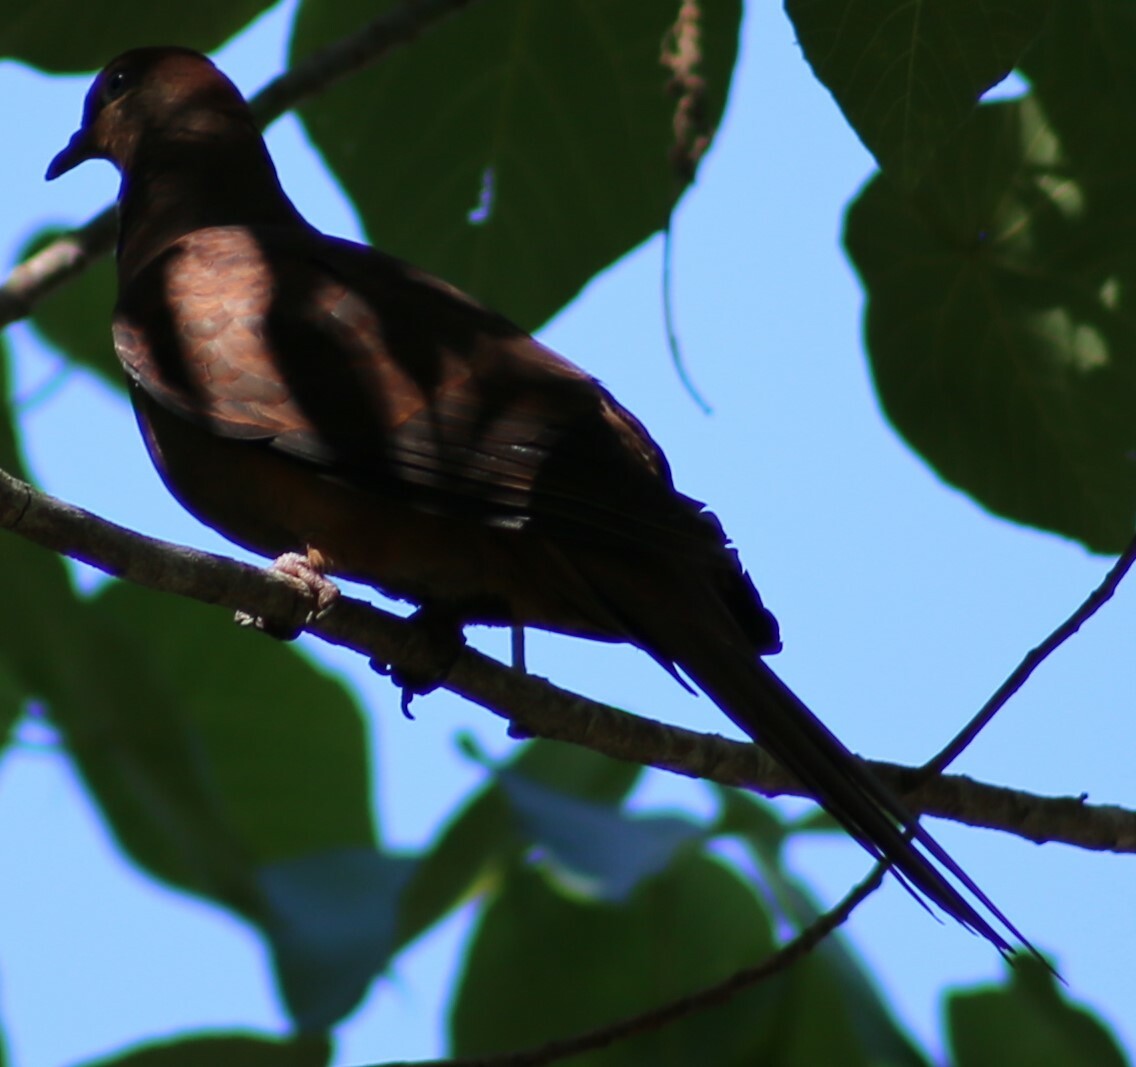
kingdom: Animalia
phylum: Chordata
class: Aves
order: Columbiformes
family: Columbidae
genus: Macropygia
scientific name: Macropygia phasianella
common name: Brown cuckoo-dove
